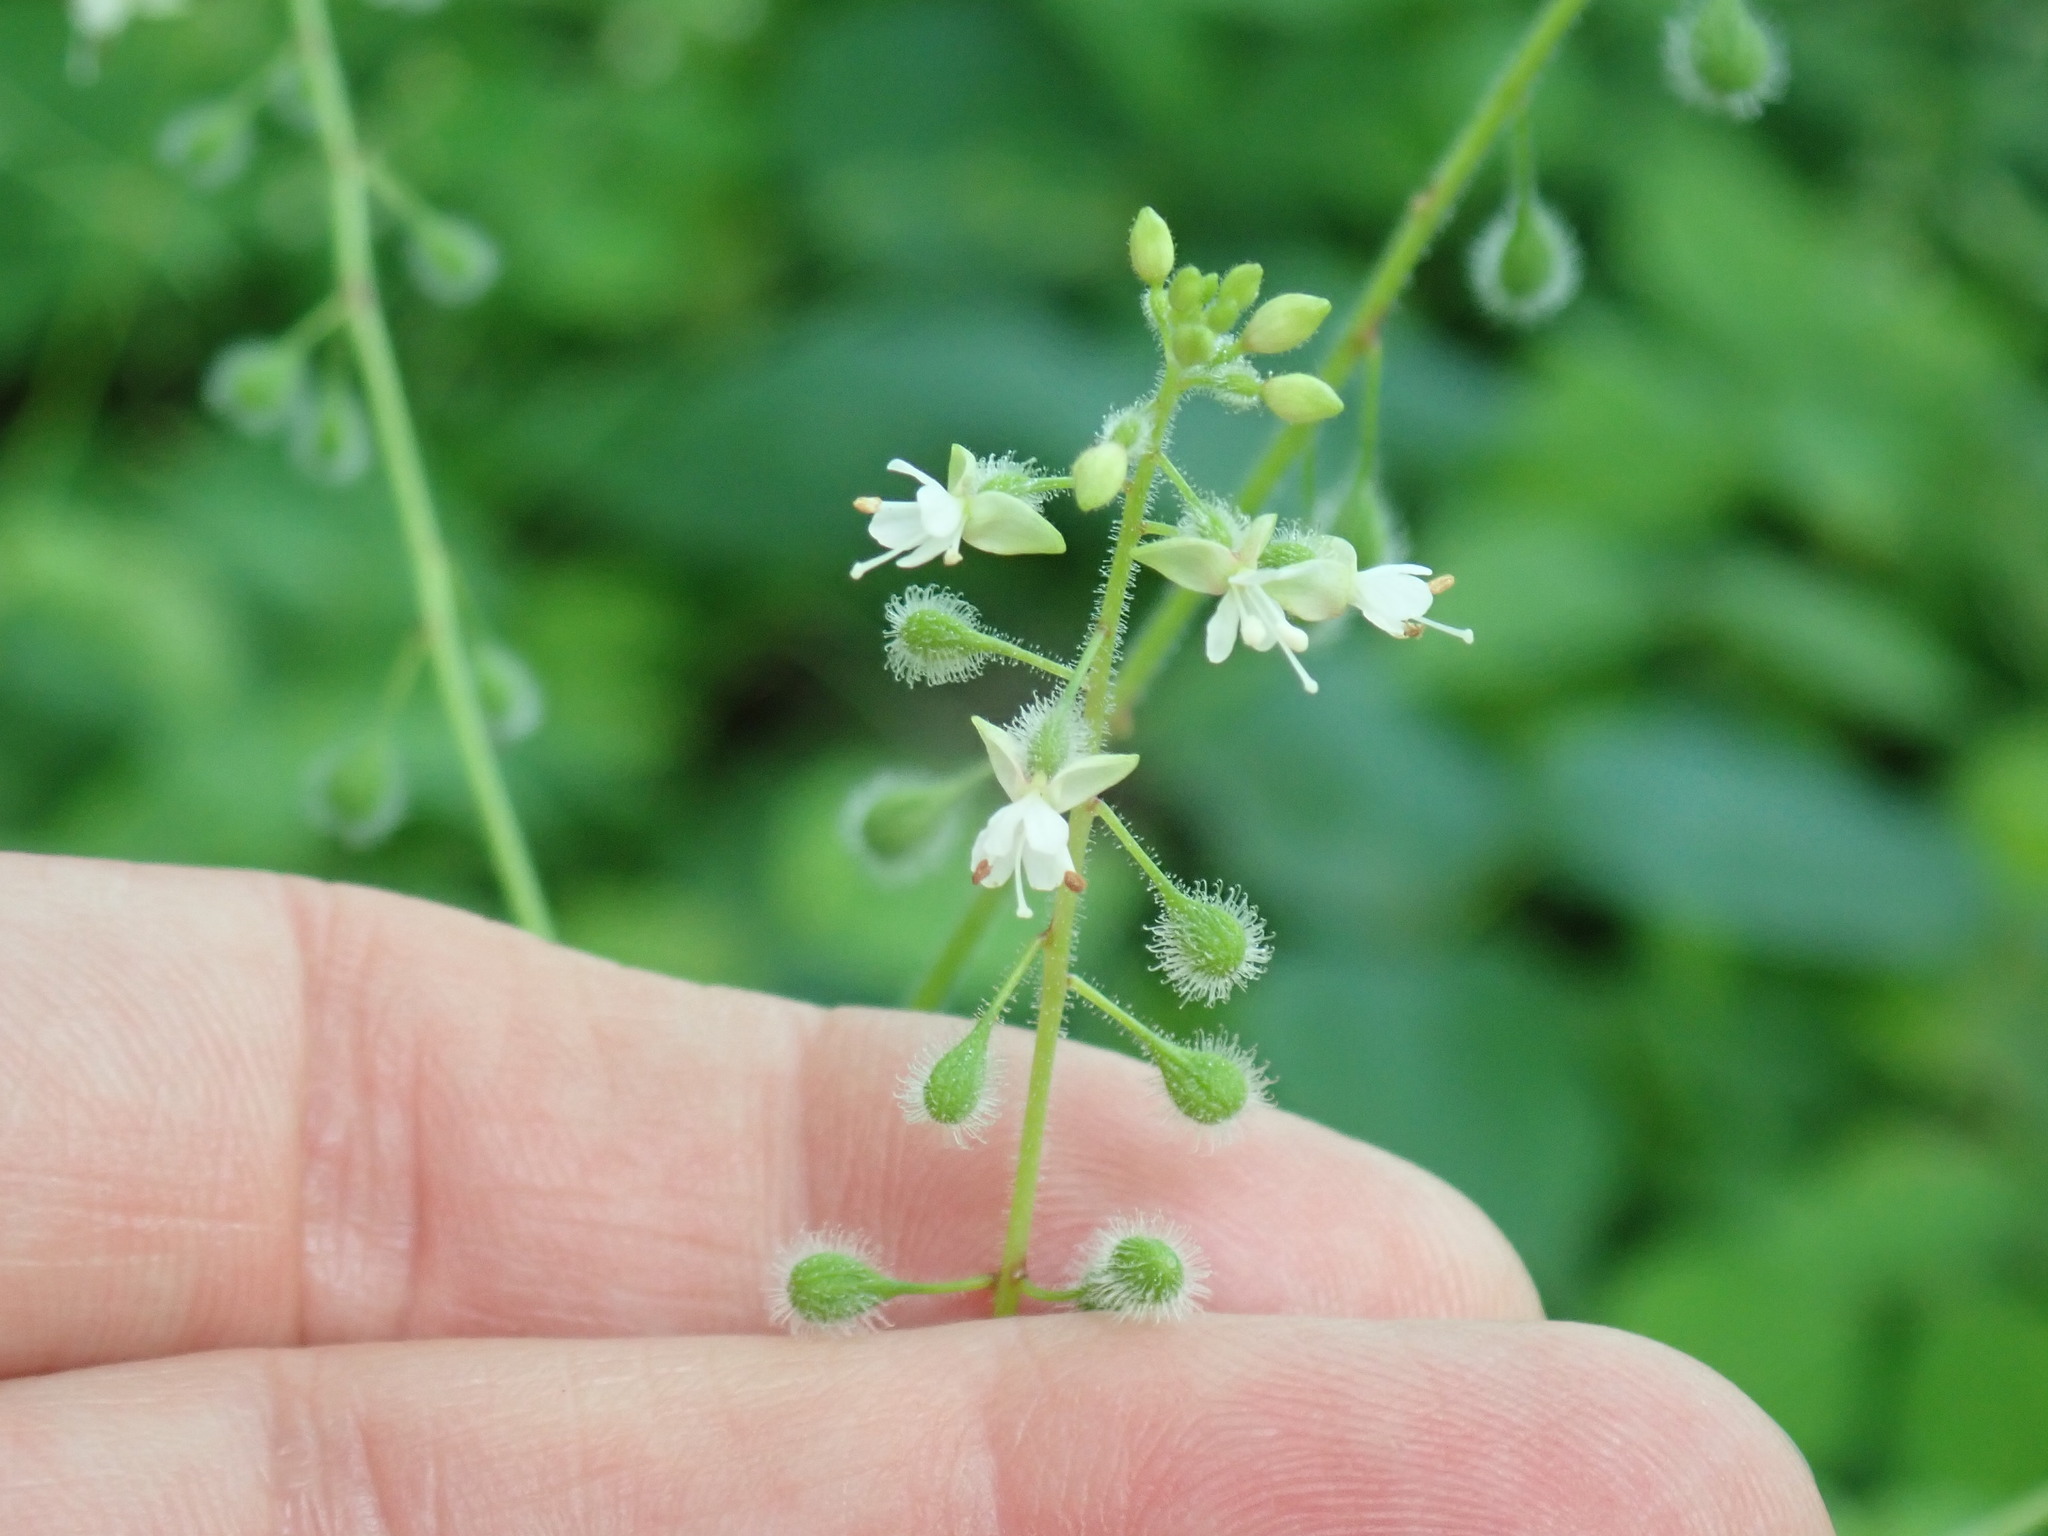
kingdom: Plantae
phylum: Tracheophyta
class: Magnoliopsida
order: Myrtales
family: Onagraceae
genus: Circaea
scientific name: Circaea canadensis
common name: Broad-leaved enchanter's nightshade
